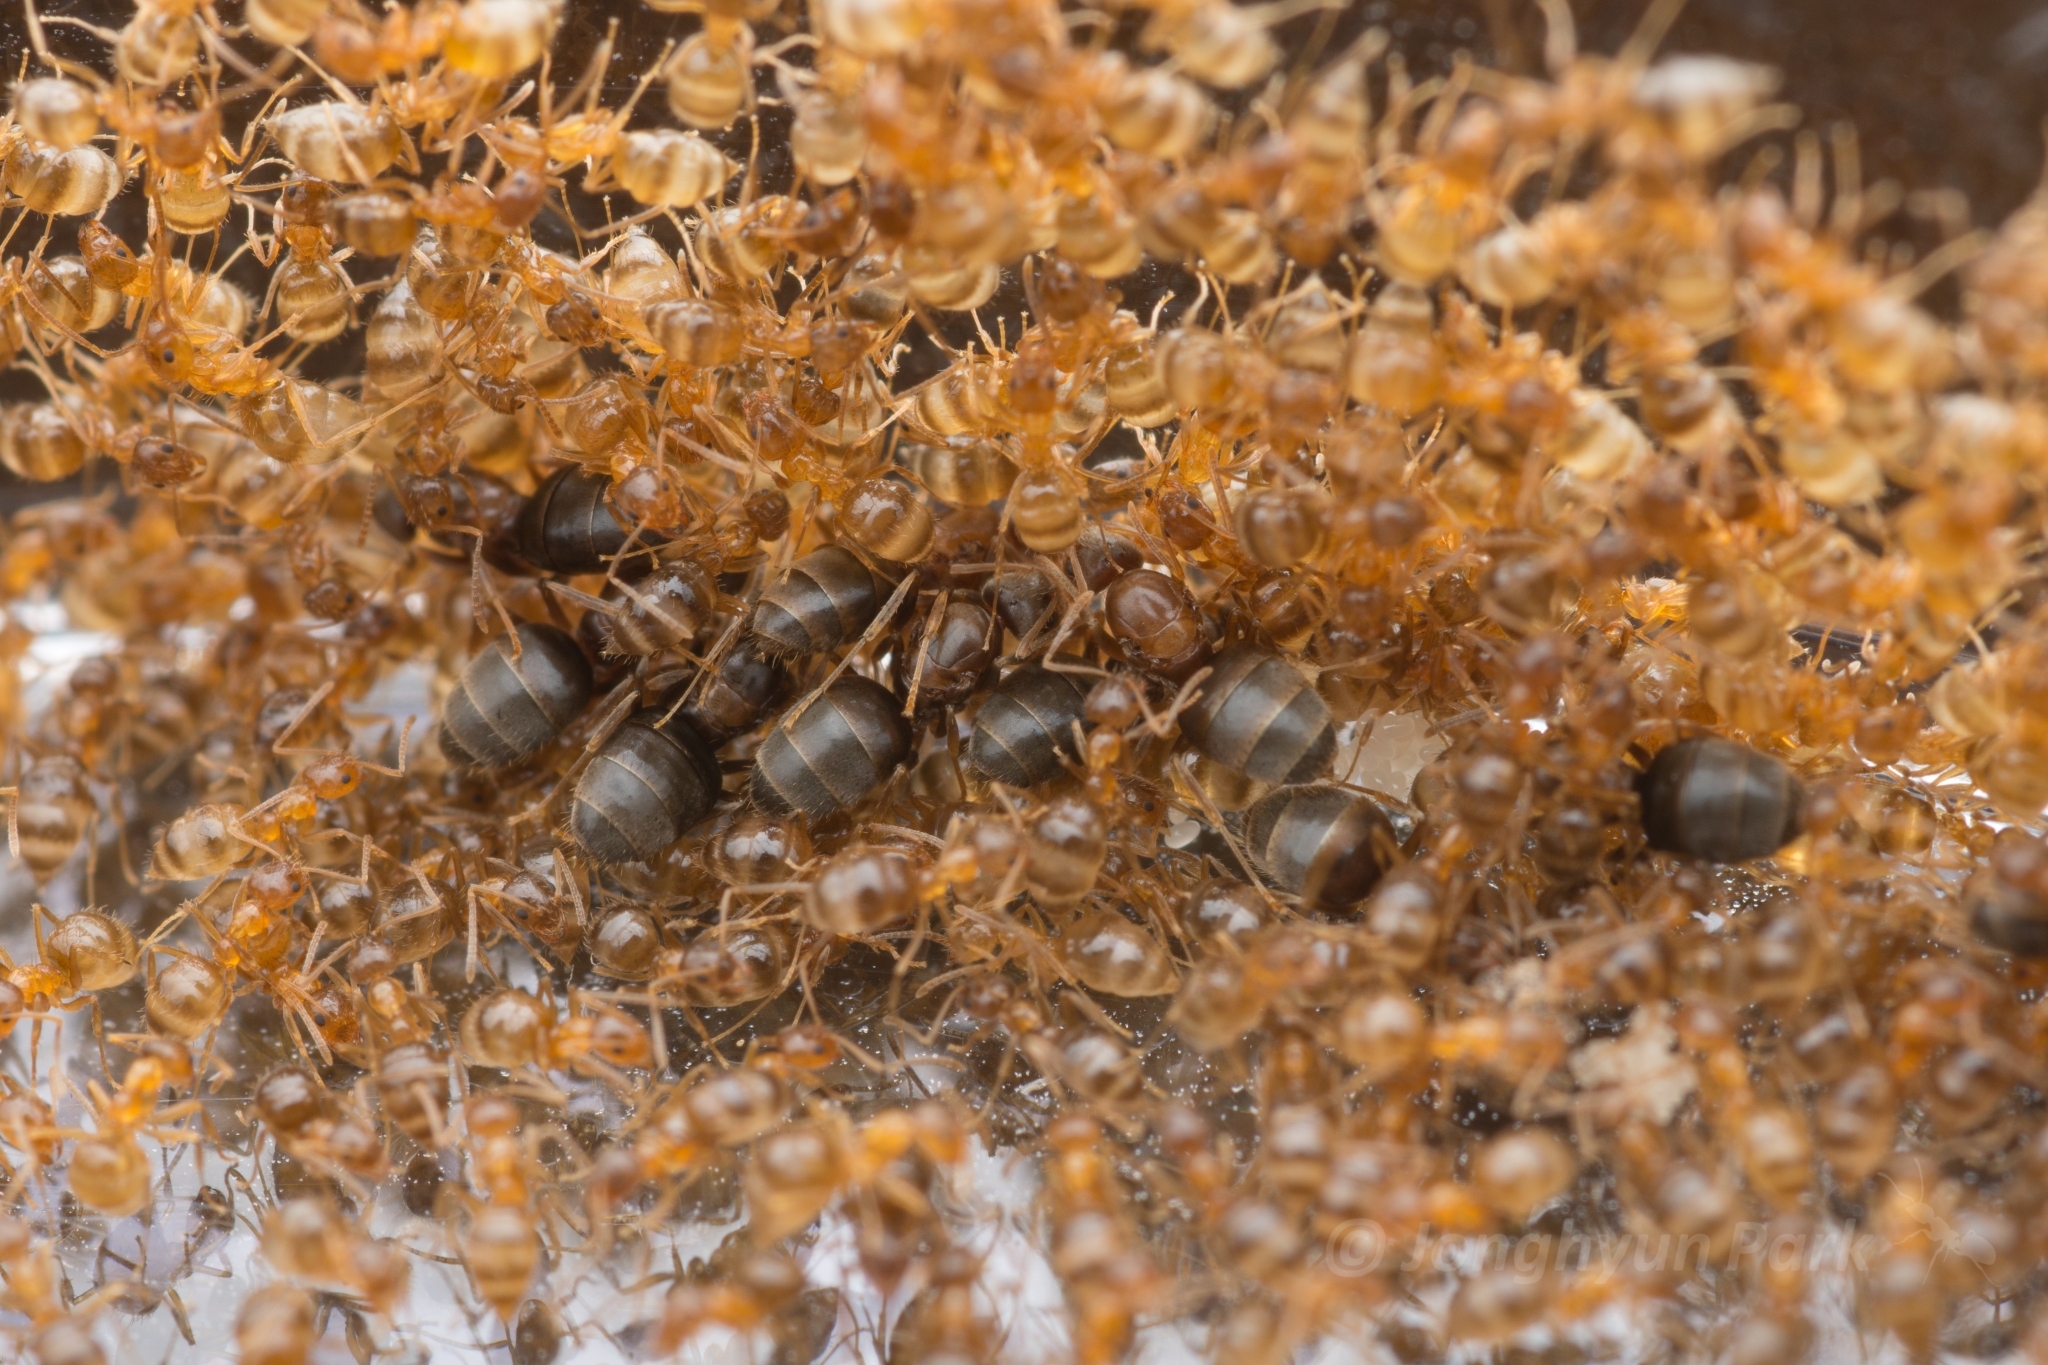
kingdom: Animalia
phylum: Arthropoda
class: Insecta
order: Hymenoptera
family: Formicidae
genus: Paratrechina
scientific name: Paratrechina flavipes
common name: Eastern asian formicine ant
